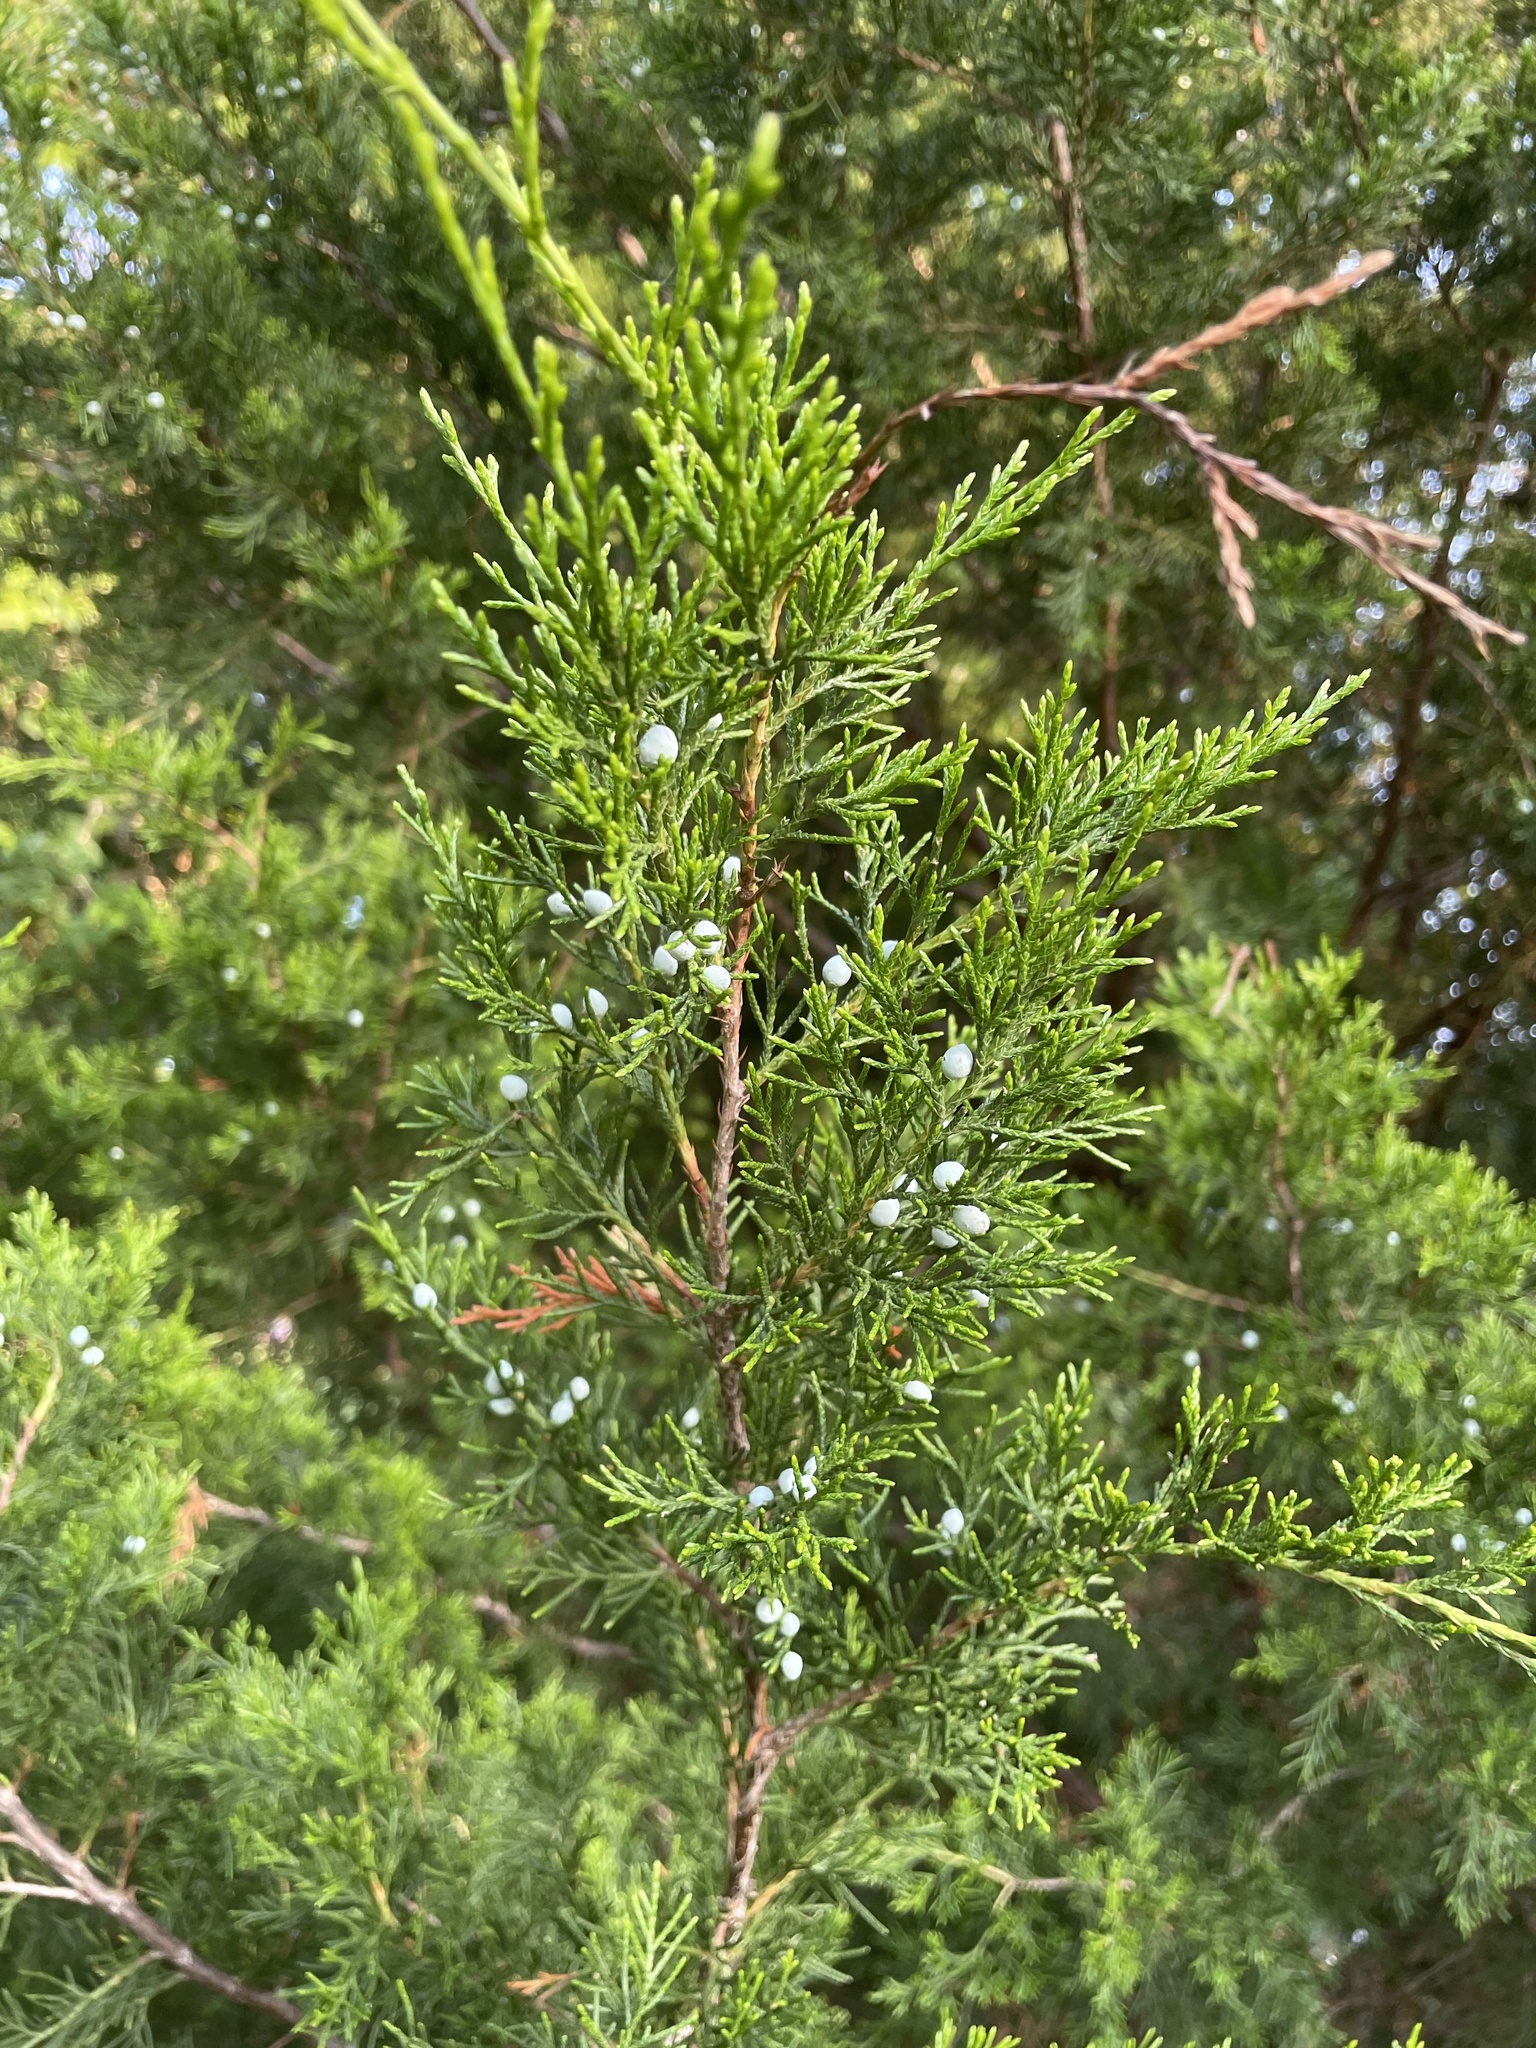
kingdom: Plantae
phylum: Tracheophyta
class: Pinopsida
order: Pinales
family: Cupressaceae
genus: Juniperus
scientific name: Juniperus virginiana
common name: Red juniper
